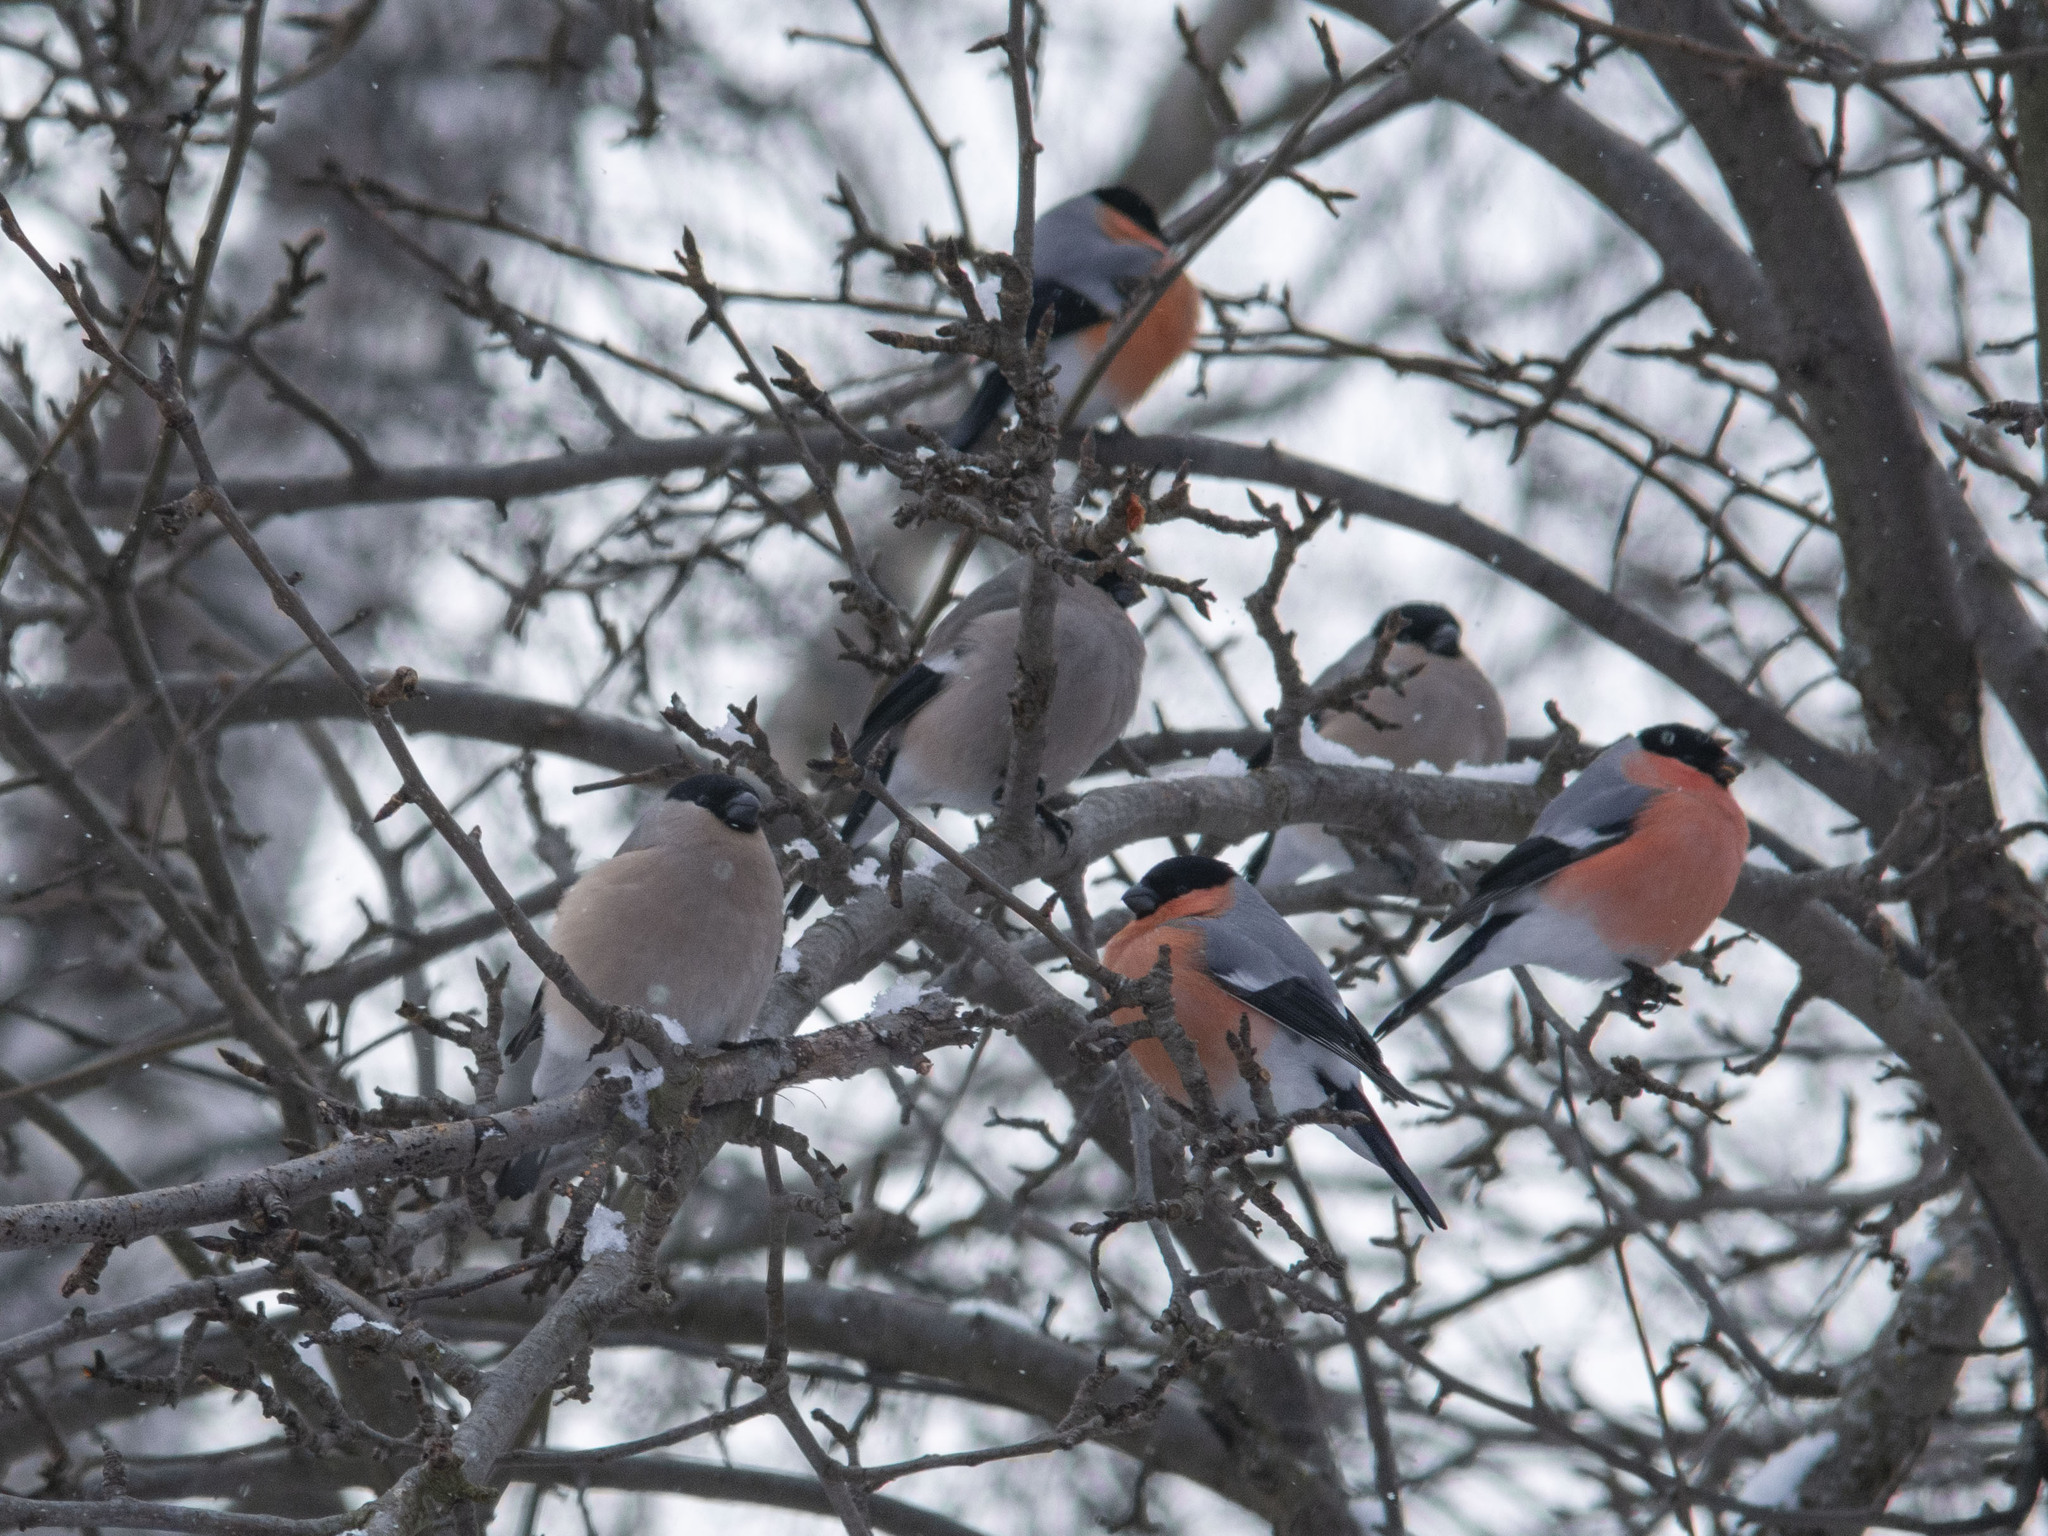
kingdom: Animalia
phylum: Chordata
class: Aves
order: Passeriformes
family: Fringillidae
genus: Pyrrhula
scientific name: Pyrrhula pyrrhula
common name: Eurasian bullfinch
